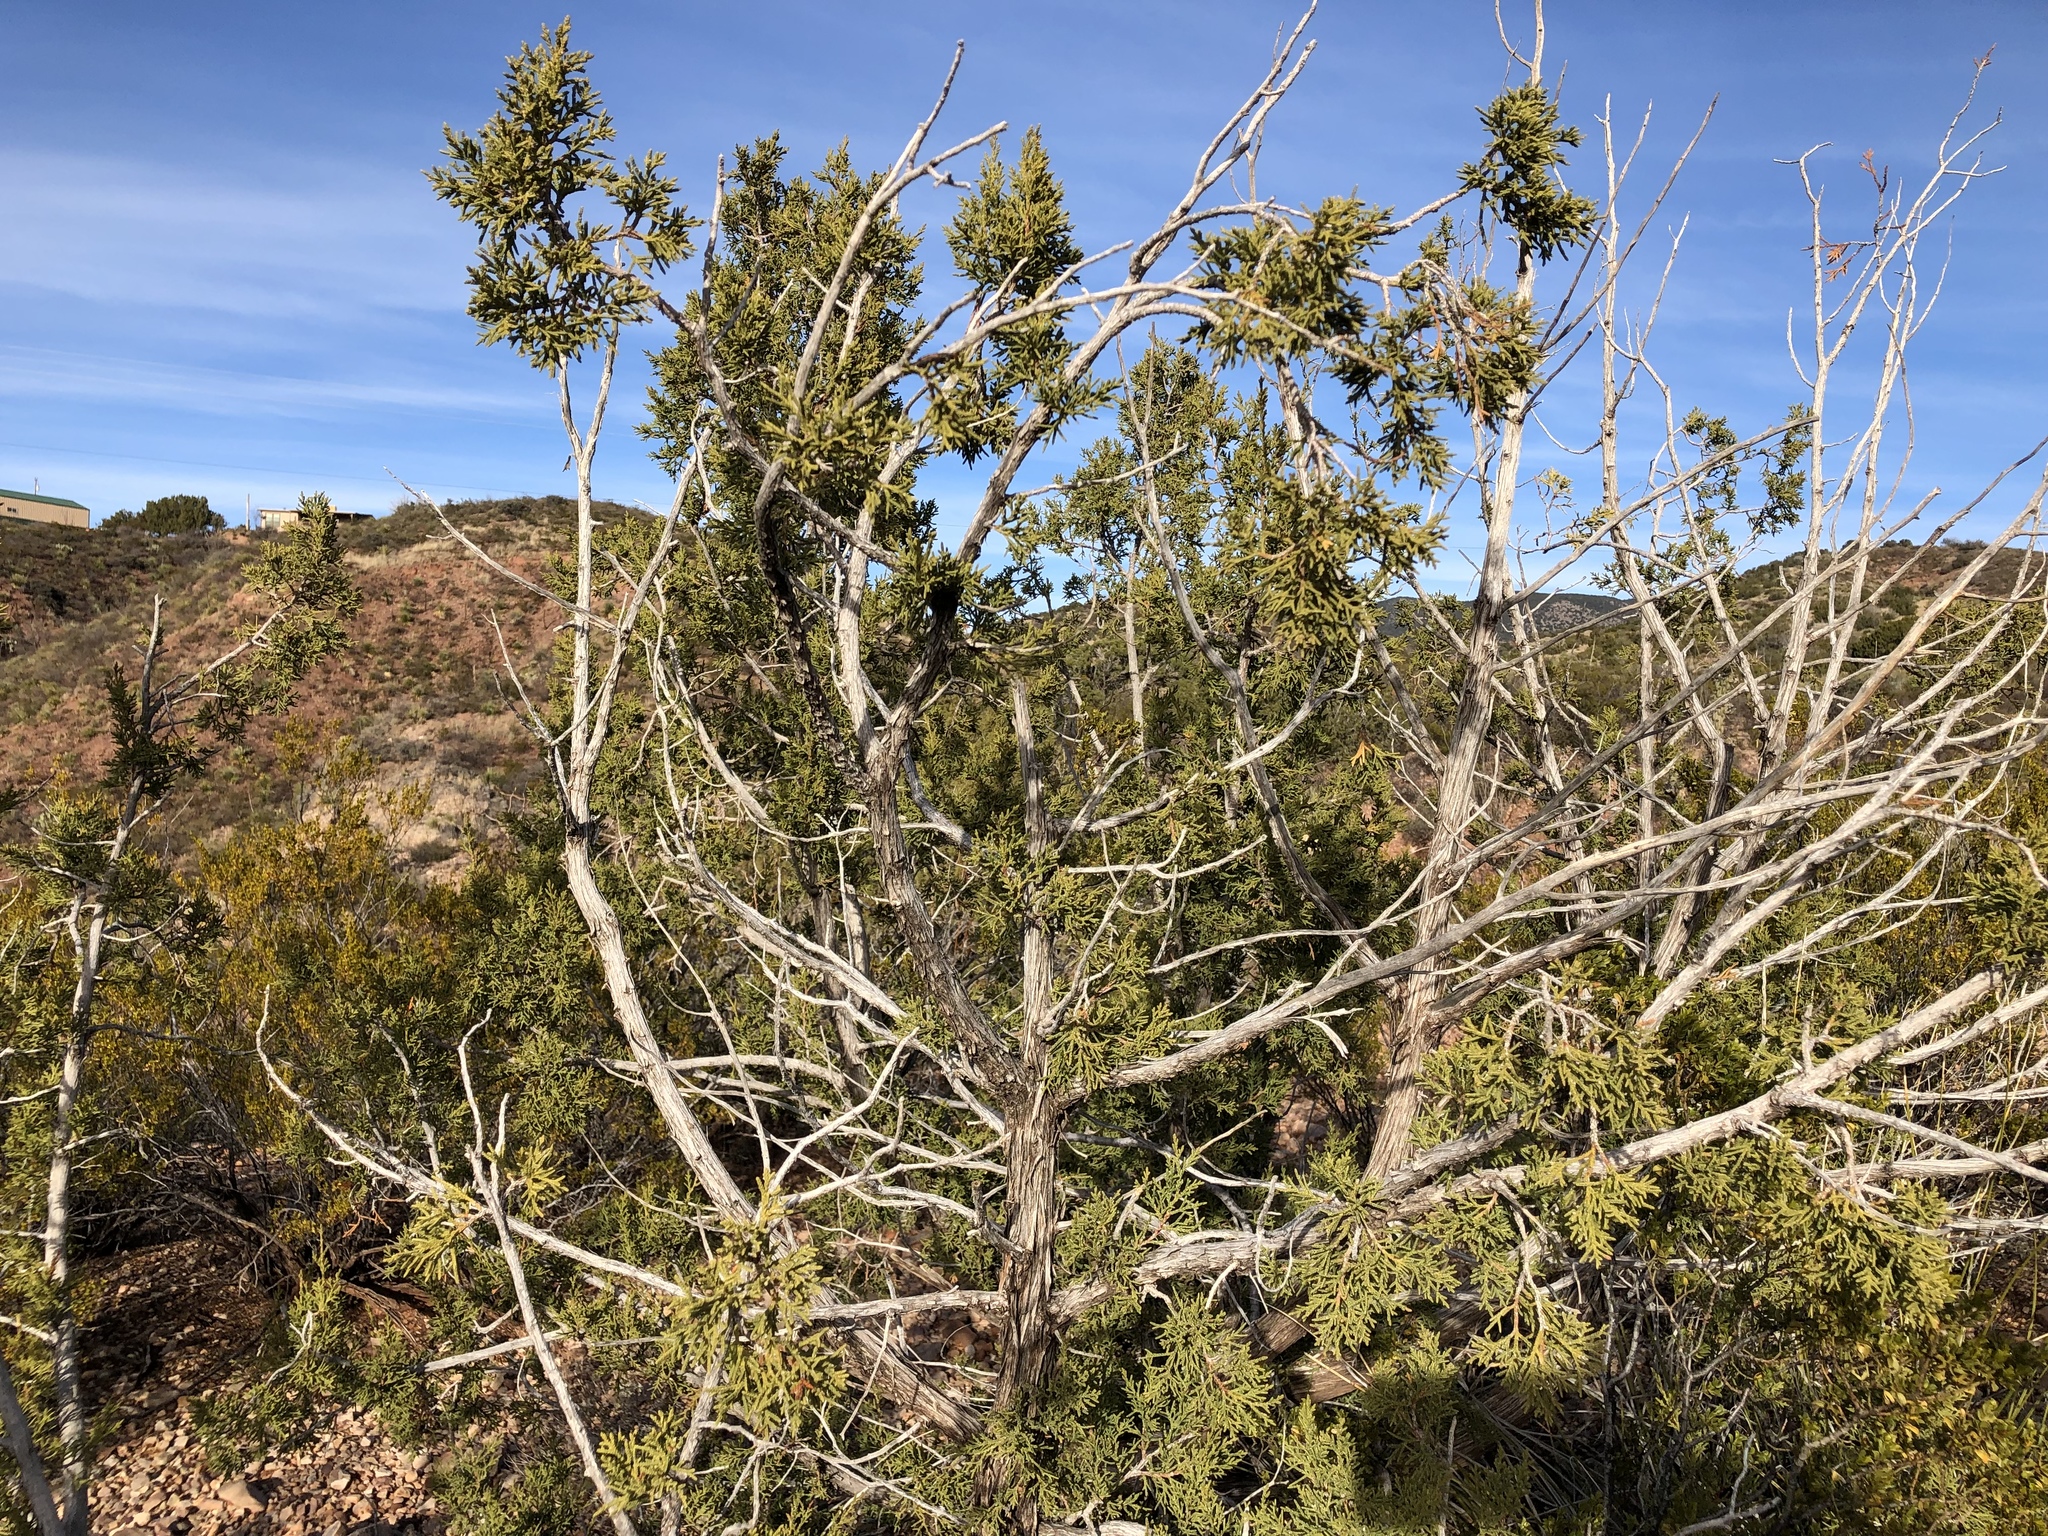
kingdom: Plantae
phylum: Tracheophyta
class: Pinopsida
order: Pinales
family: Cupressaceae
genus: Juniperus
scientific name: Juniperus monosperma
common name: One-seed juniper
